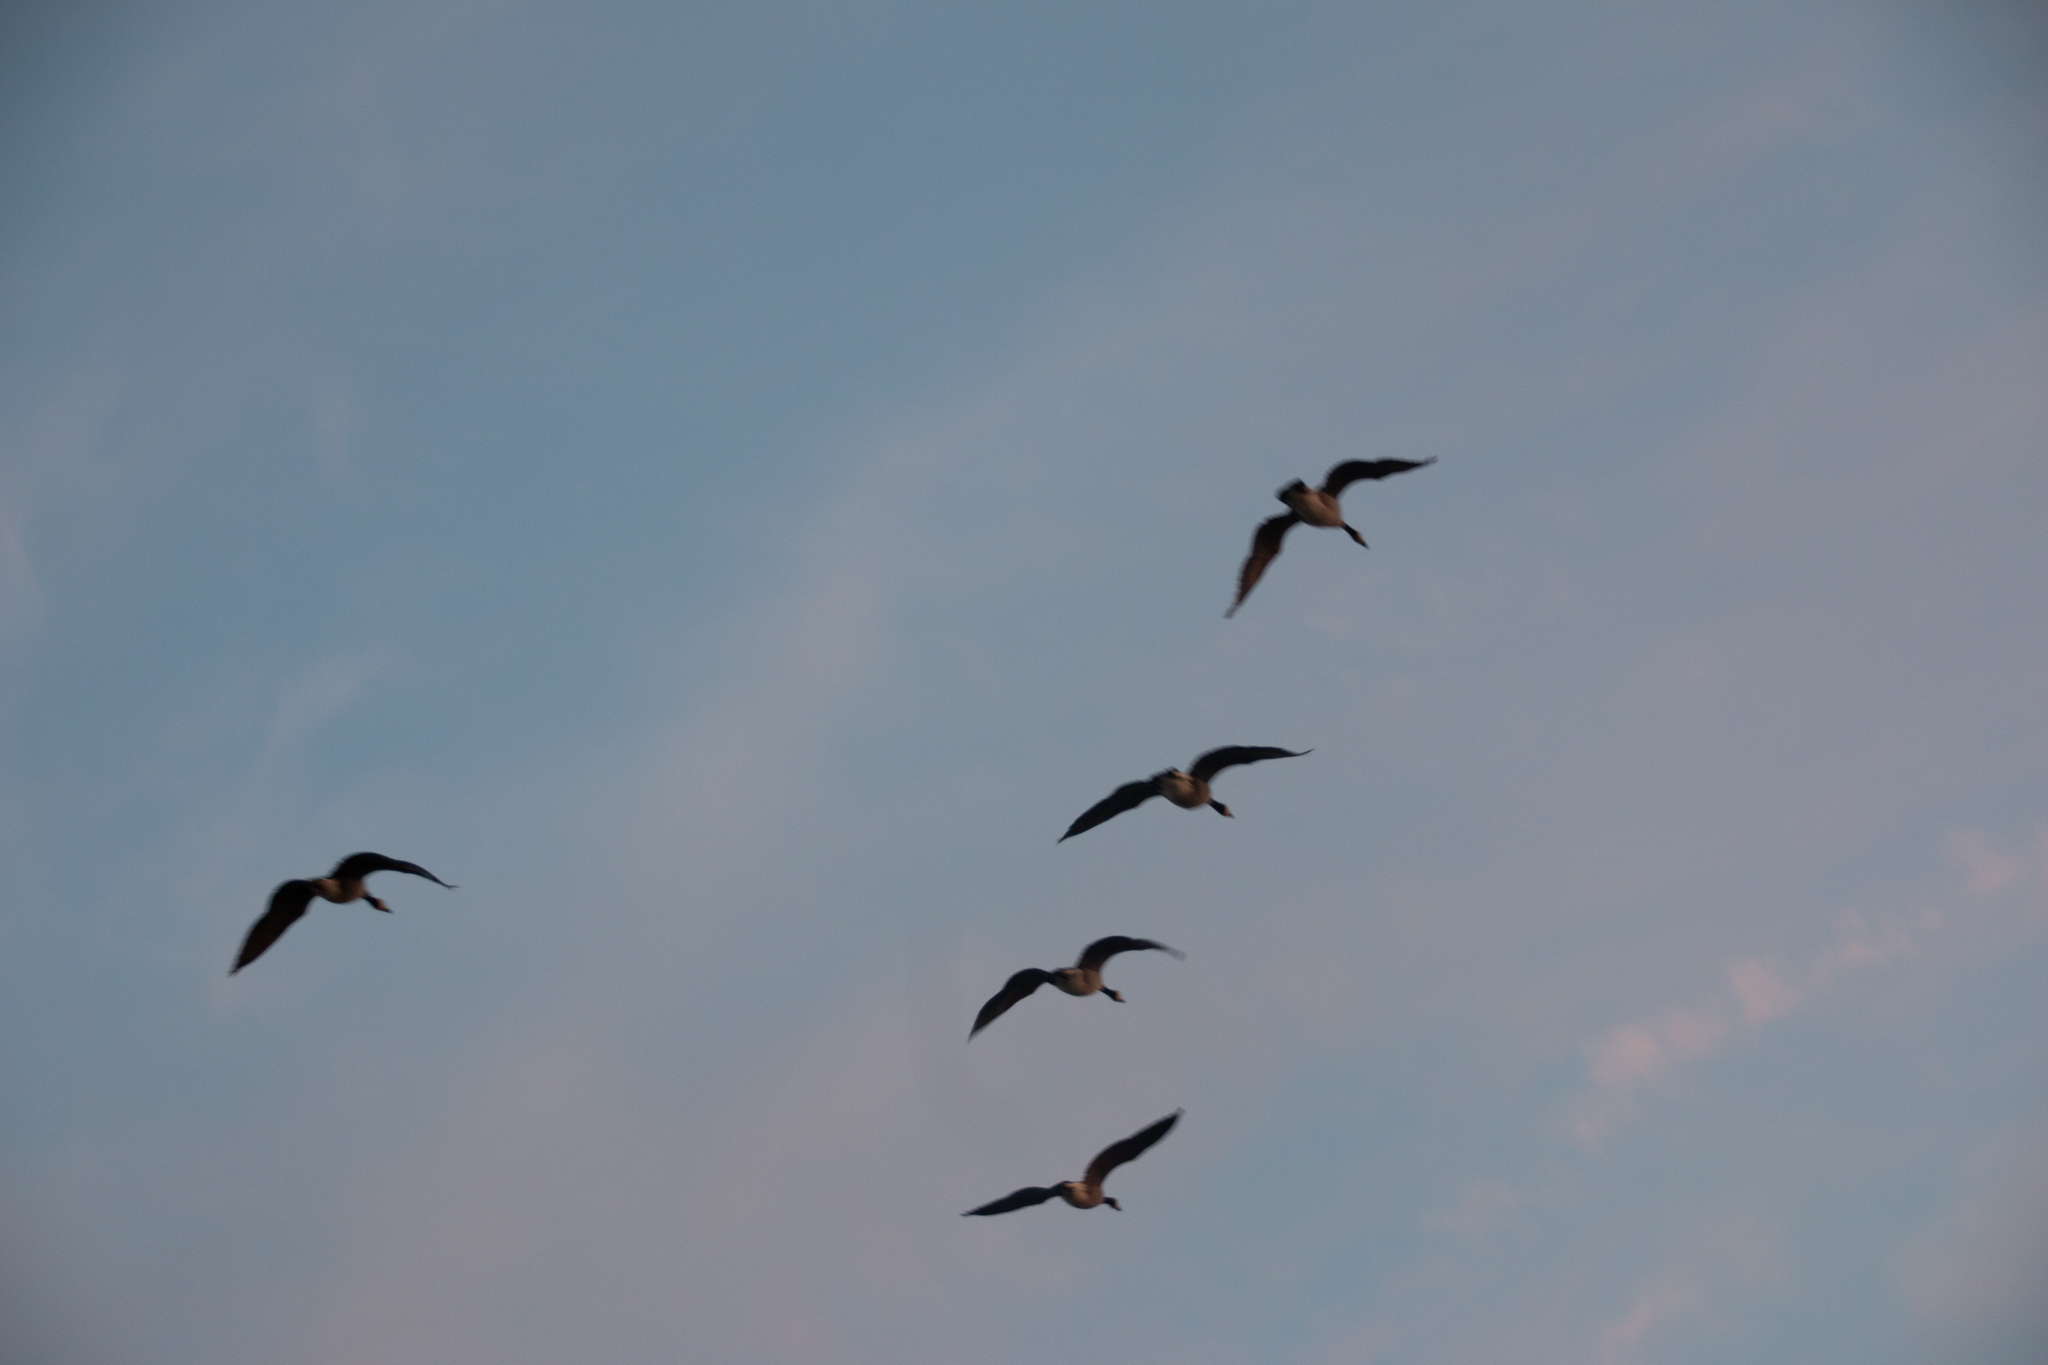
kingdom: Animalia
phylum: Chordata
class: Aves
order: Anseriformes
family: Anatidae
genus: Branta
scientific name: Branta canadensis
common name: Canada goose
